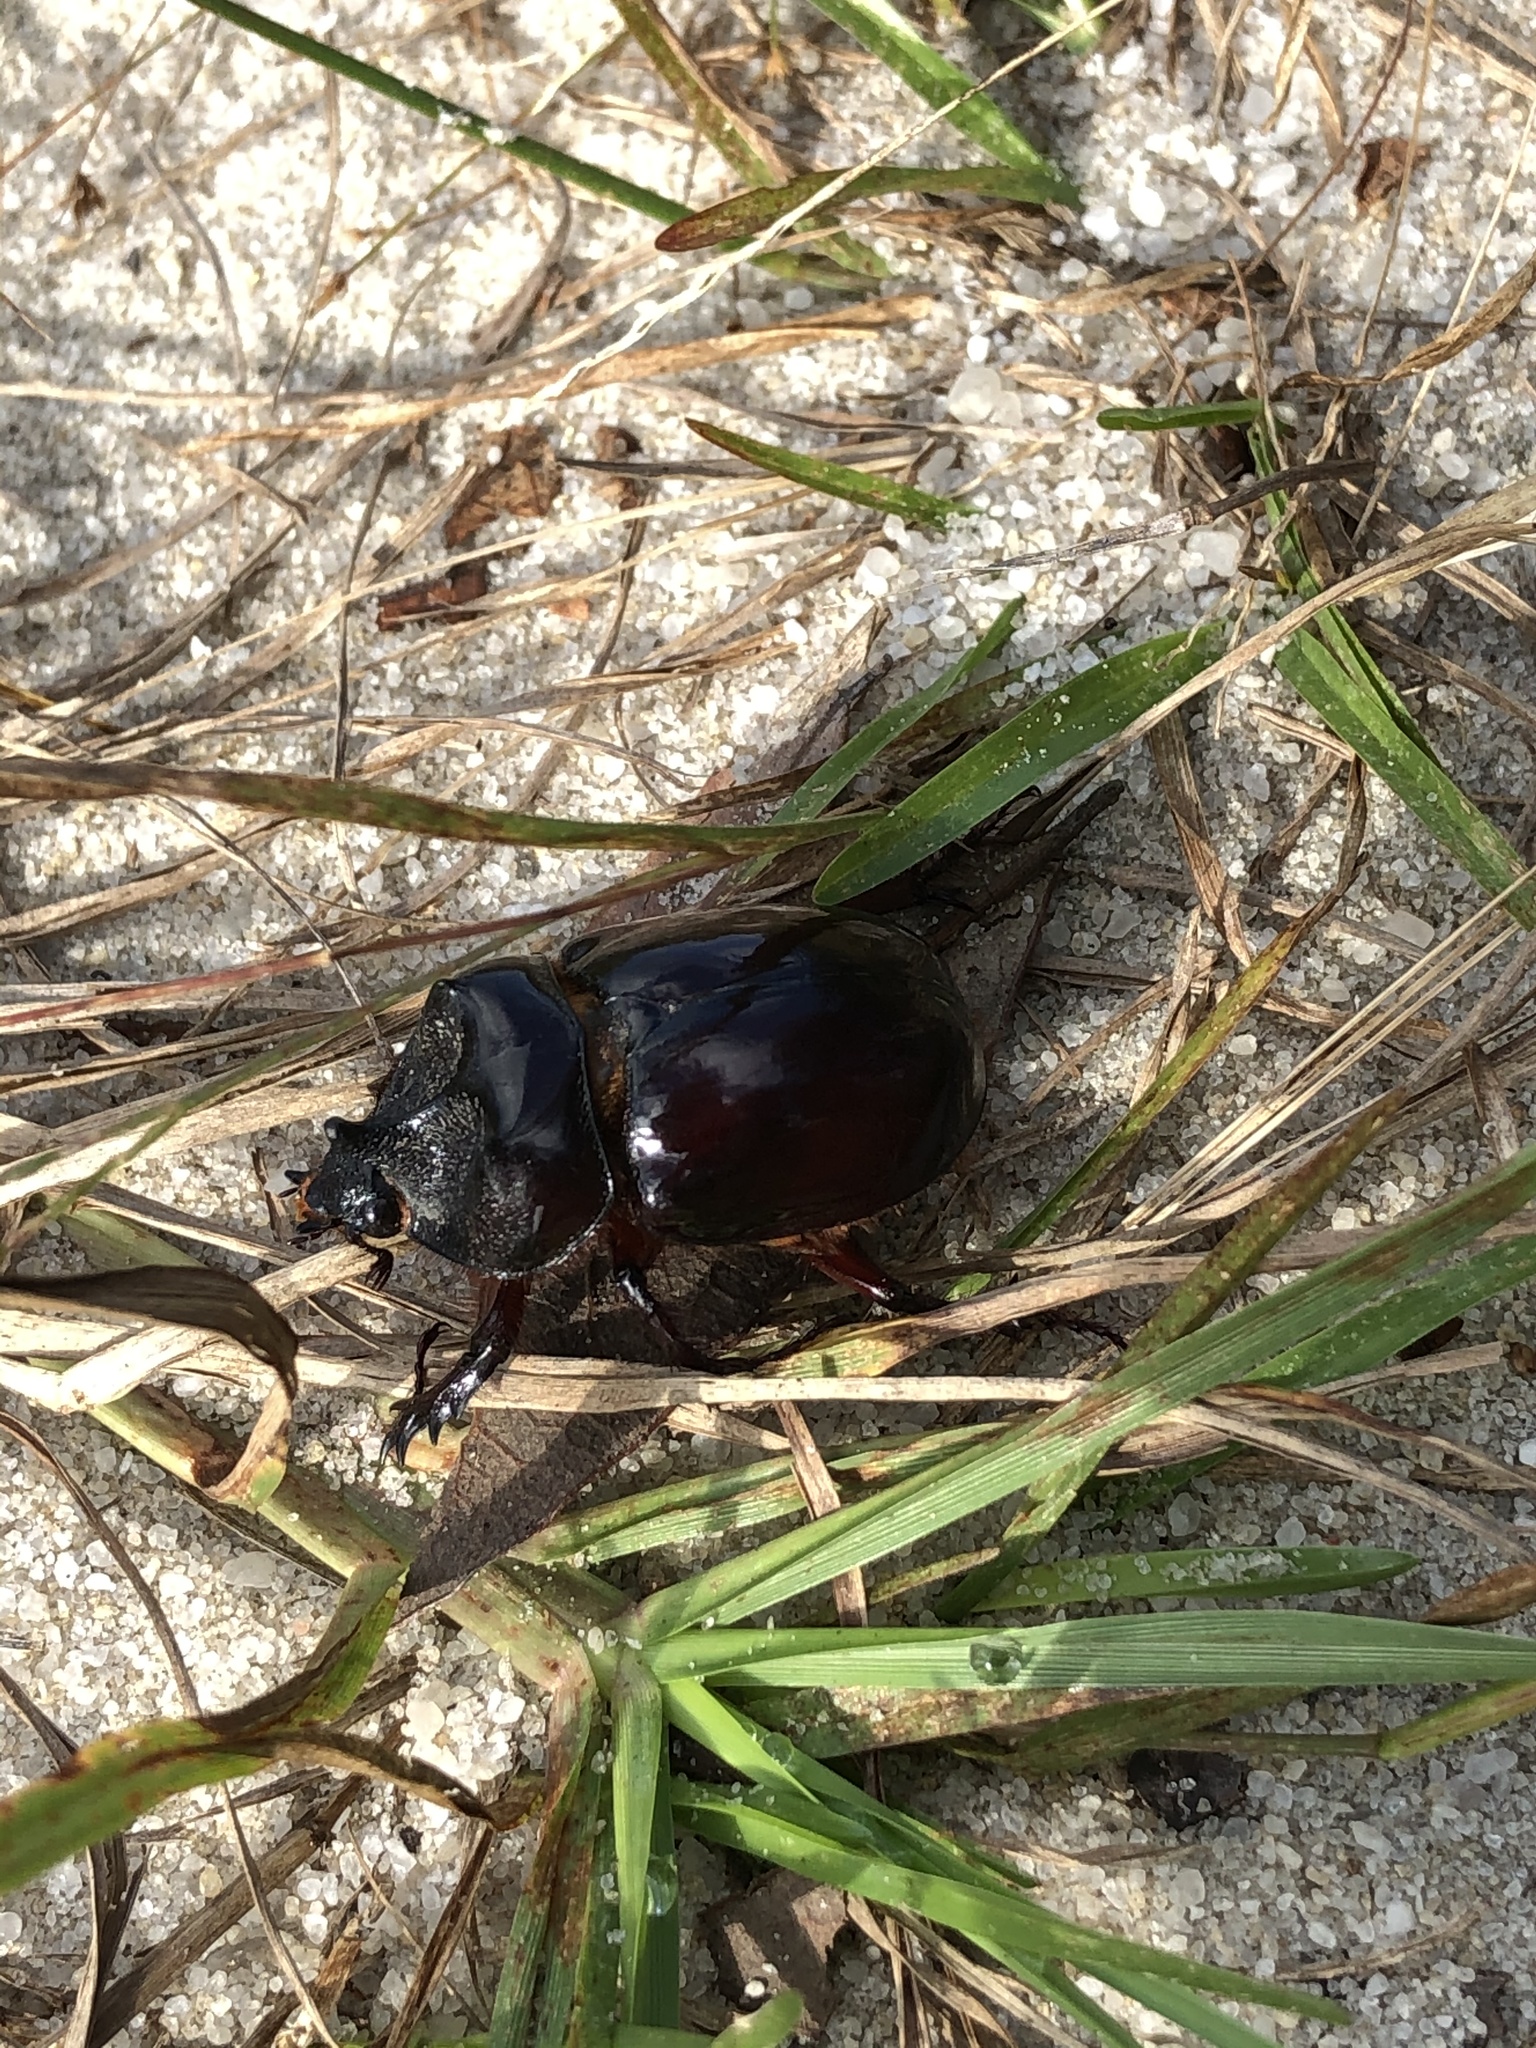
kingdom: Animalia
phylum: Arthropoda
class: Insecta
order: Coleoptera
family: Scarabaeidae
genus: Strategus
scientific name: Strategus antaeus
